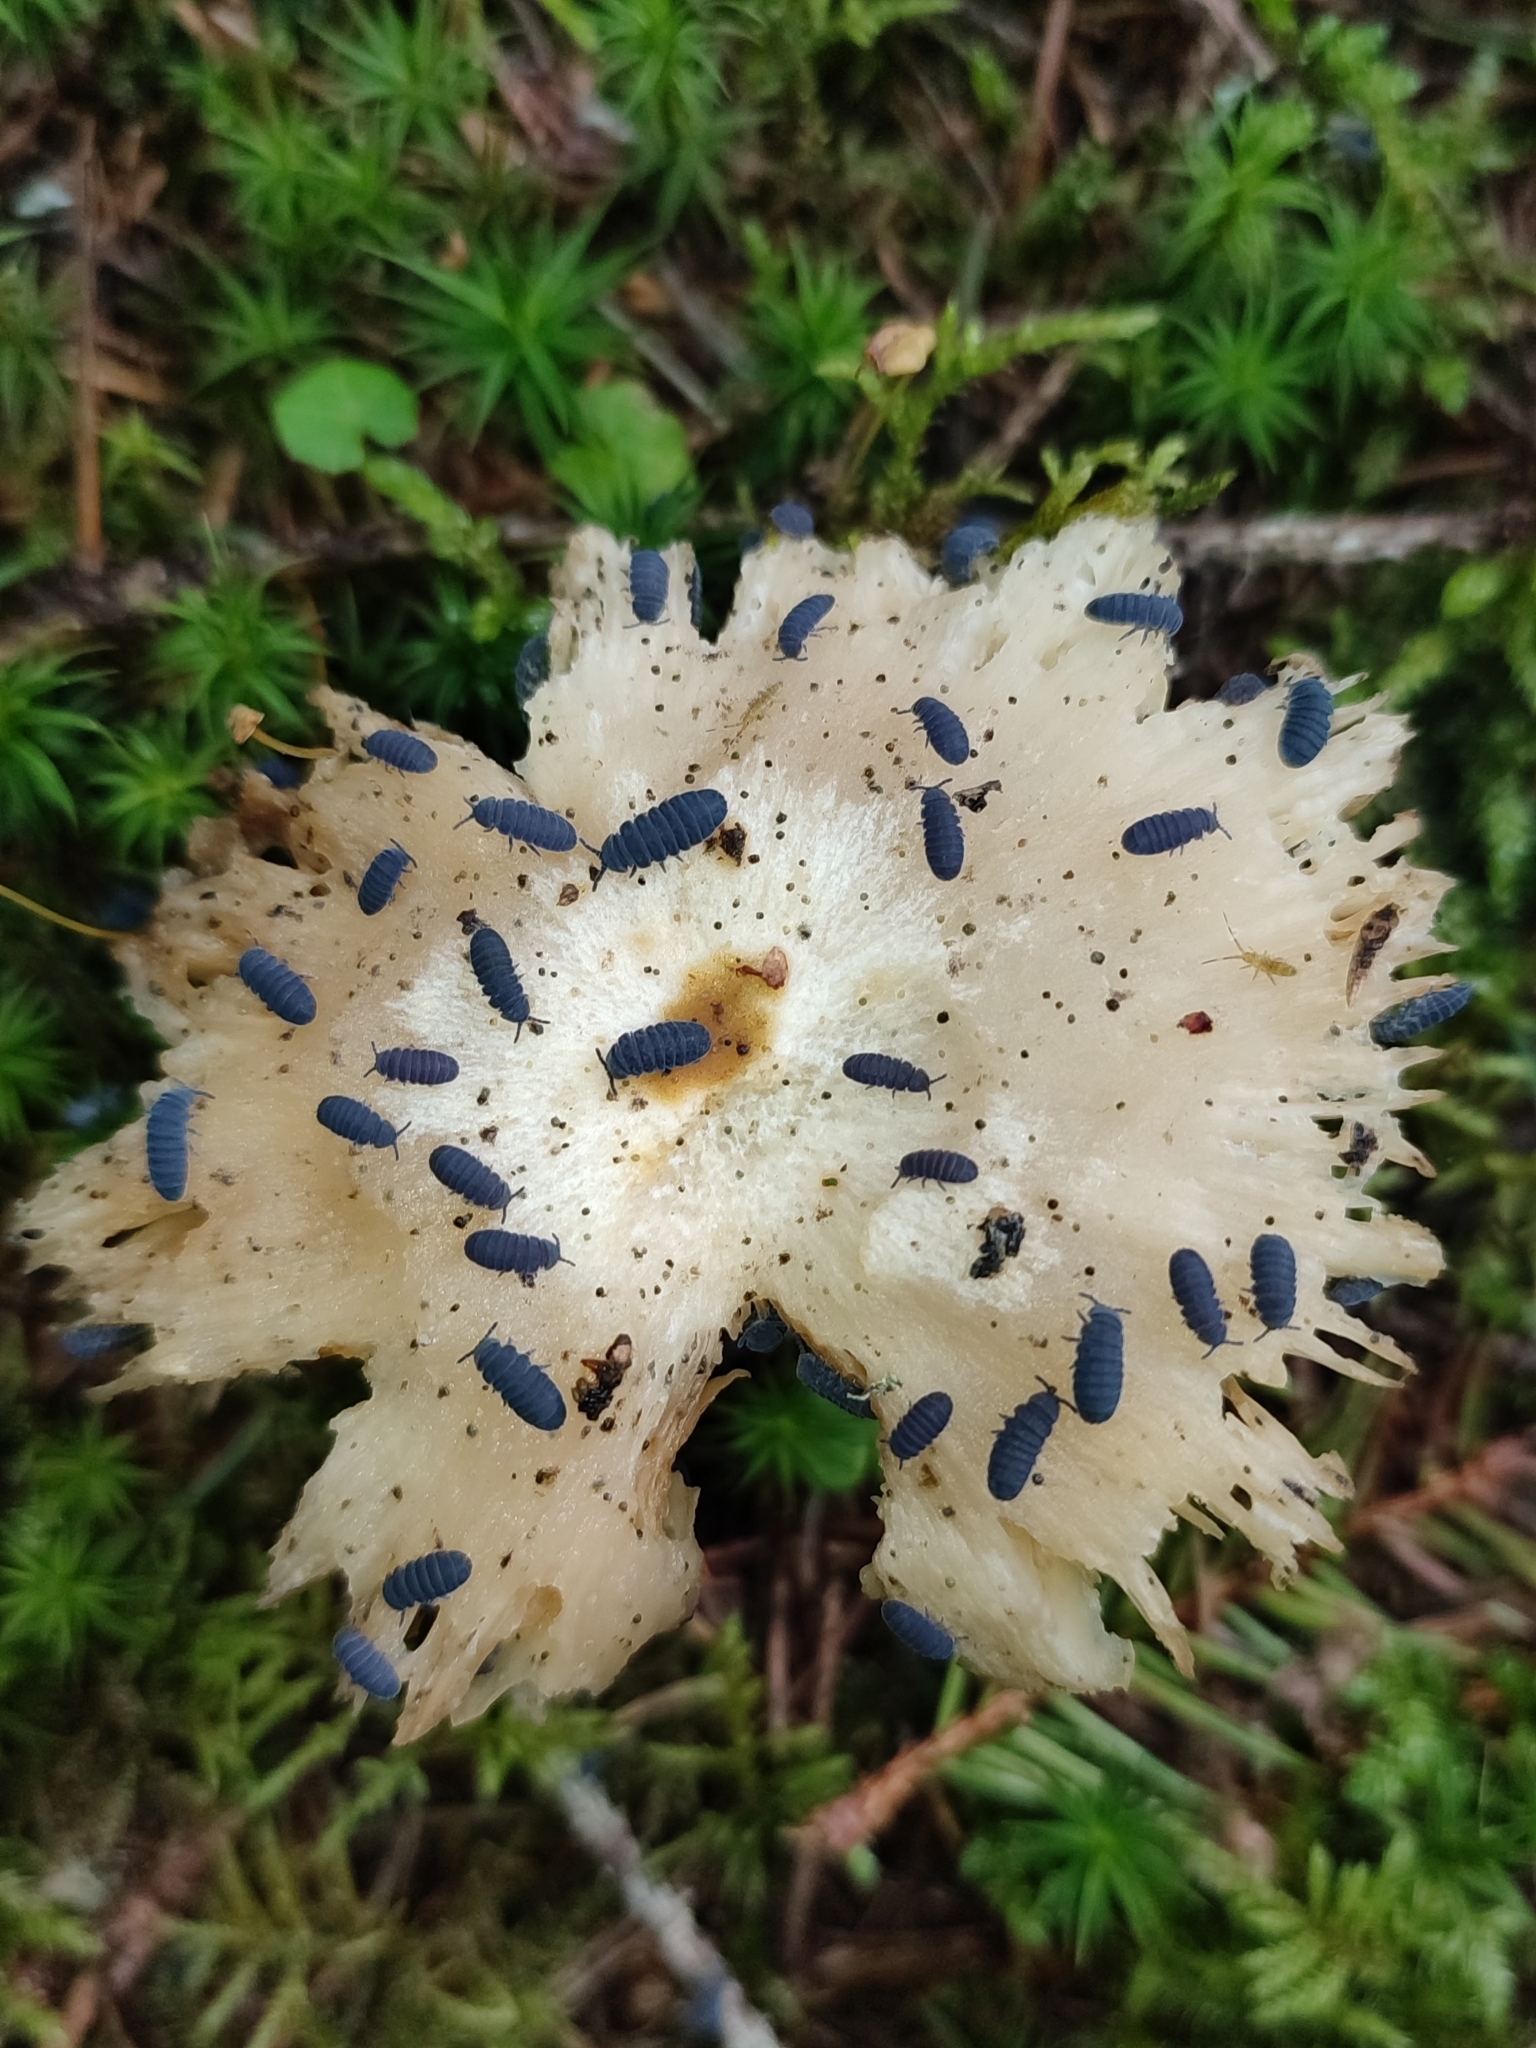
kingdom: Animalia
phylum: Arthropoda
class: Collembola
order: Poduromorpha
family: Onychiuridae
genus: Tetrodontophora
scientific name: Tetrodontophora bielanensis
